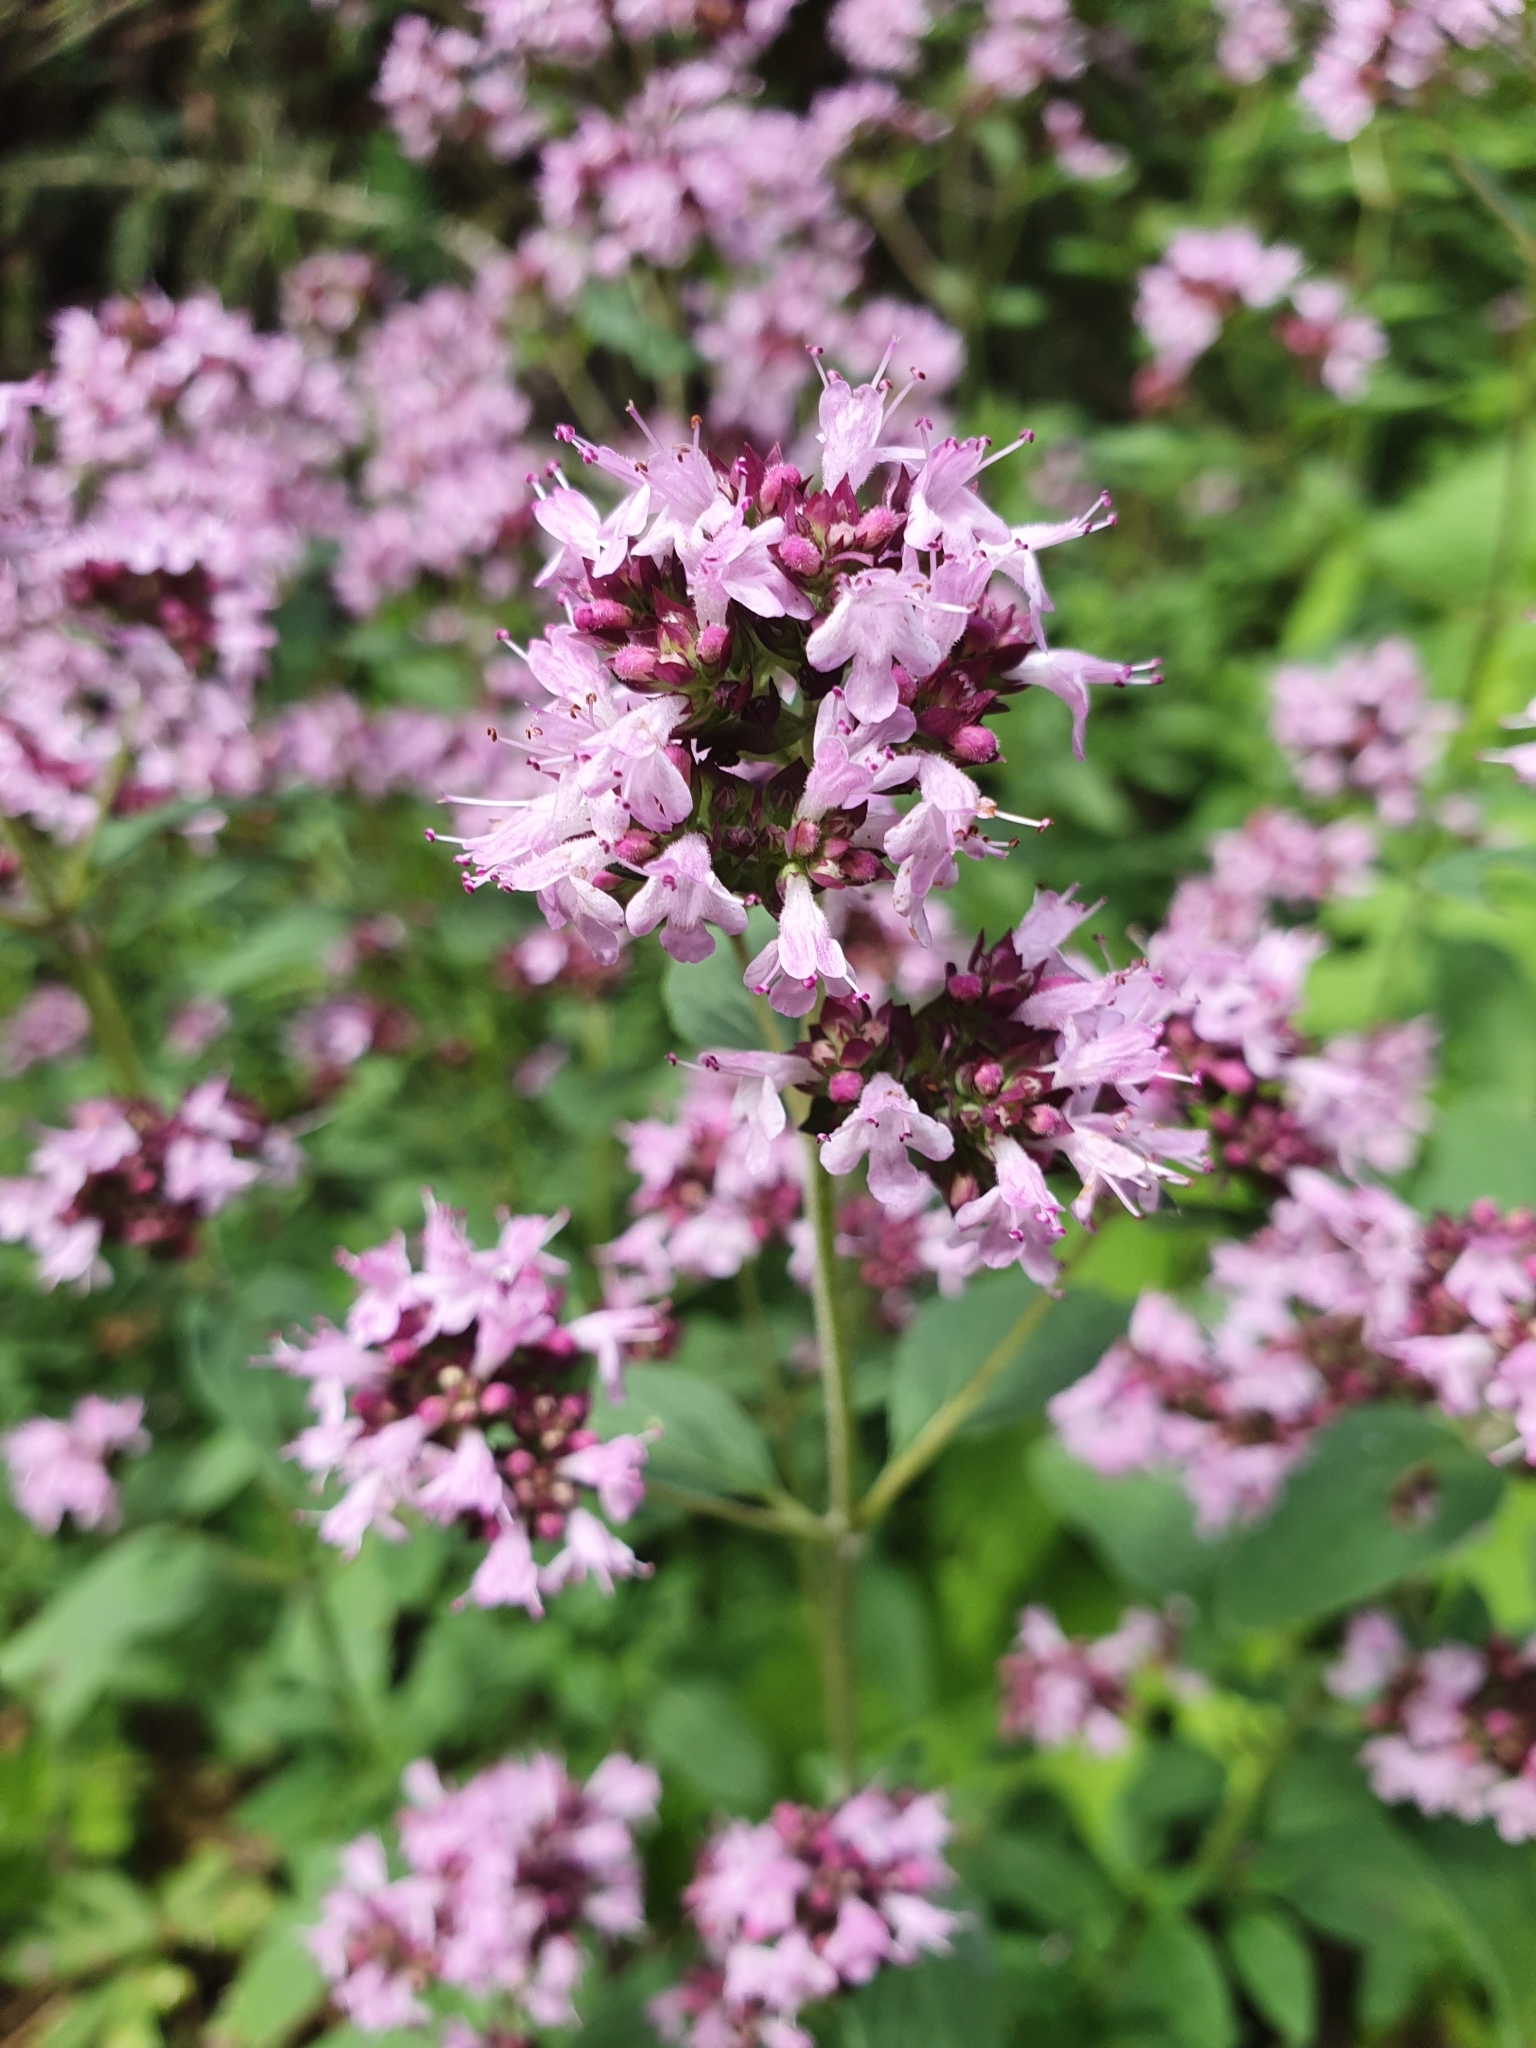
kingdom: Plantae
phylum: Tracheophyta
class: Magnoliopsida
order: Lamiales
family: Lamiaceae
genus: Origanum
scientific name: Origanum vulgare
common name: Wild marjoram
